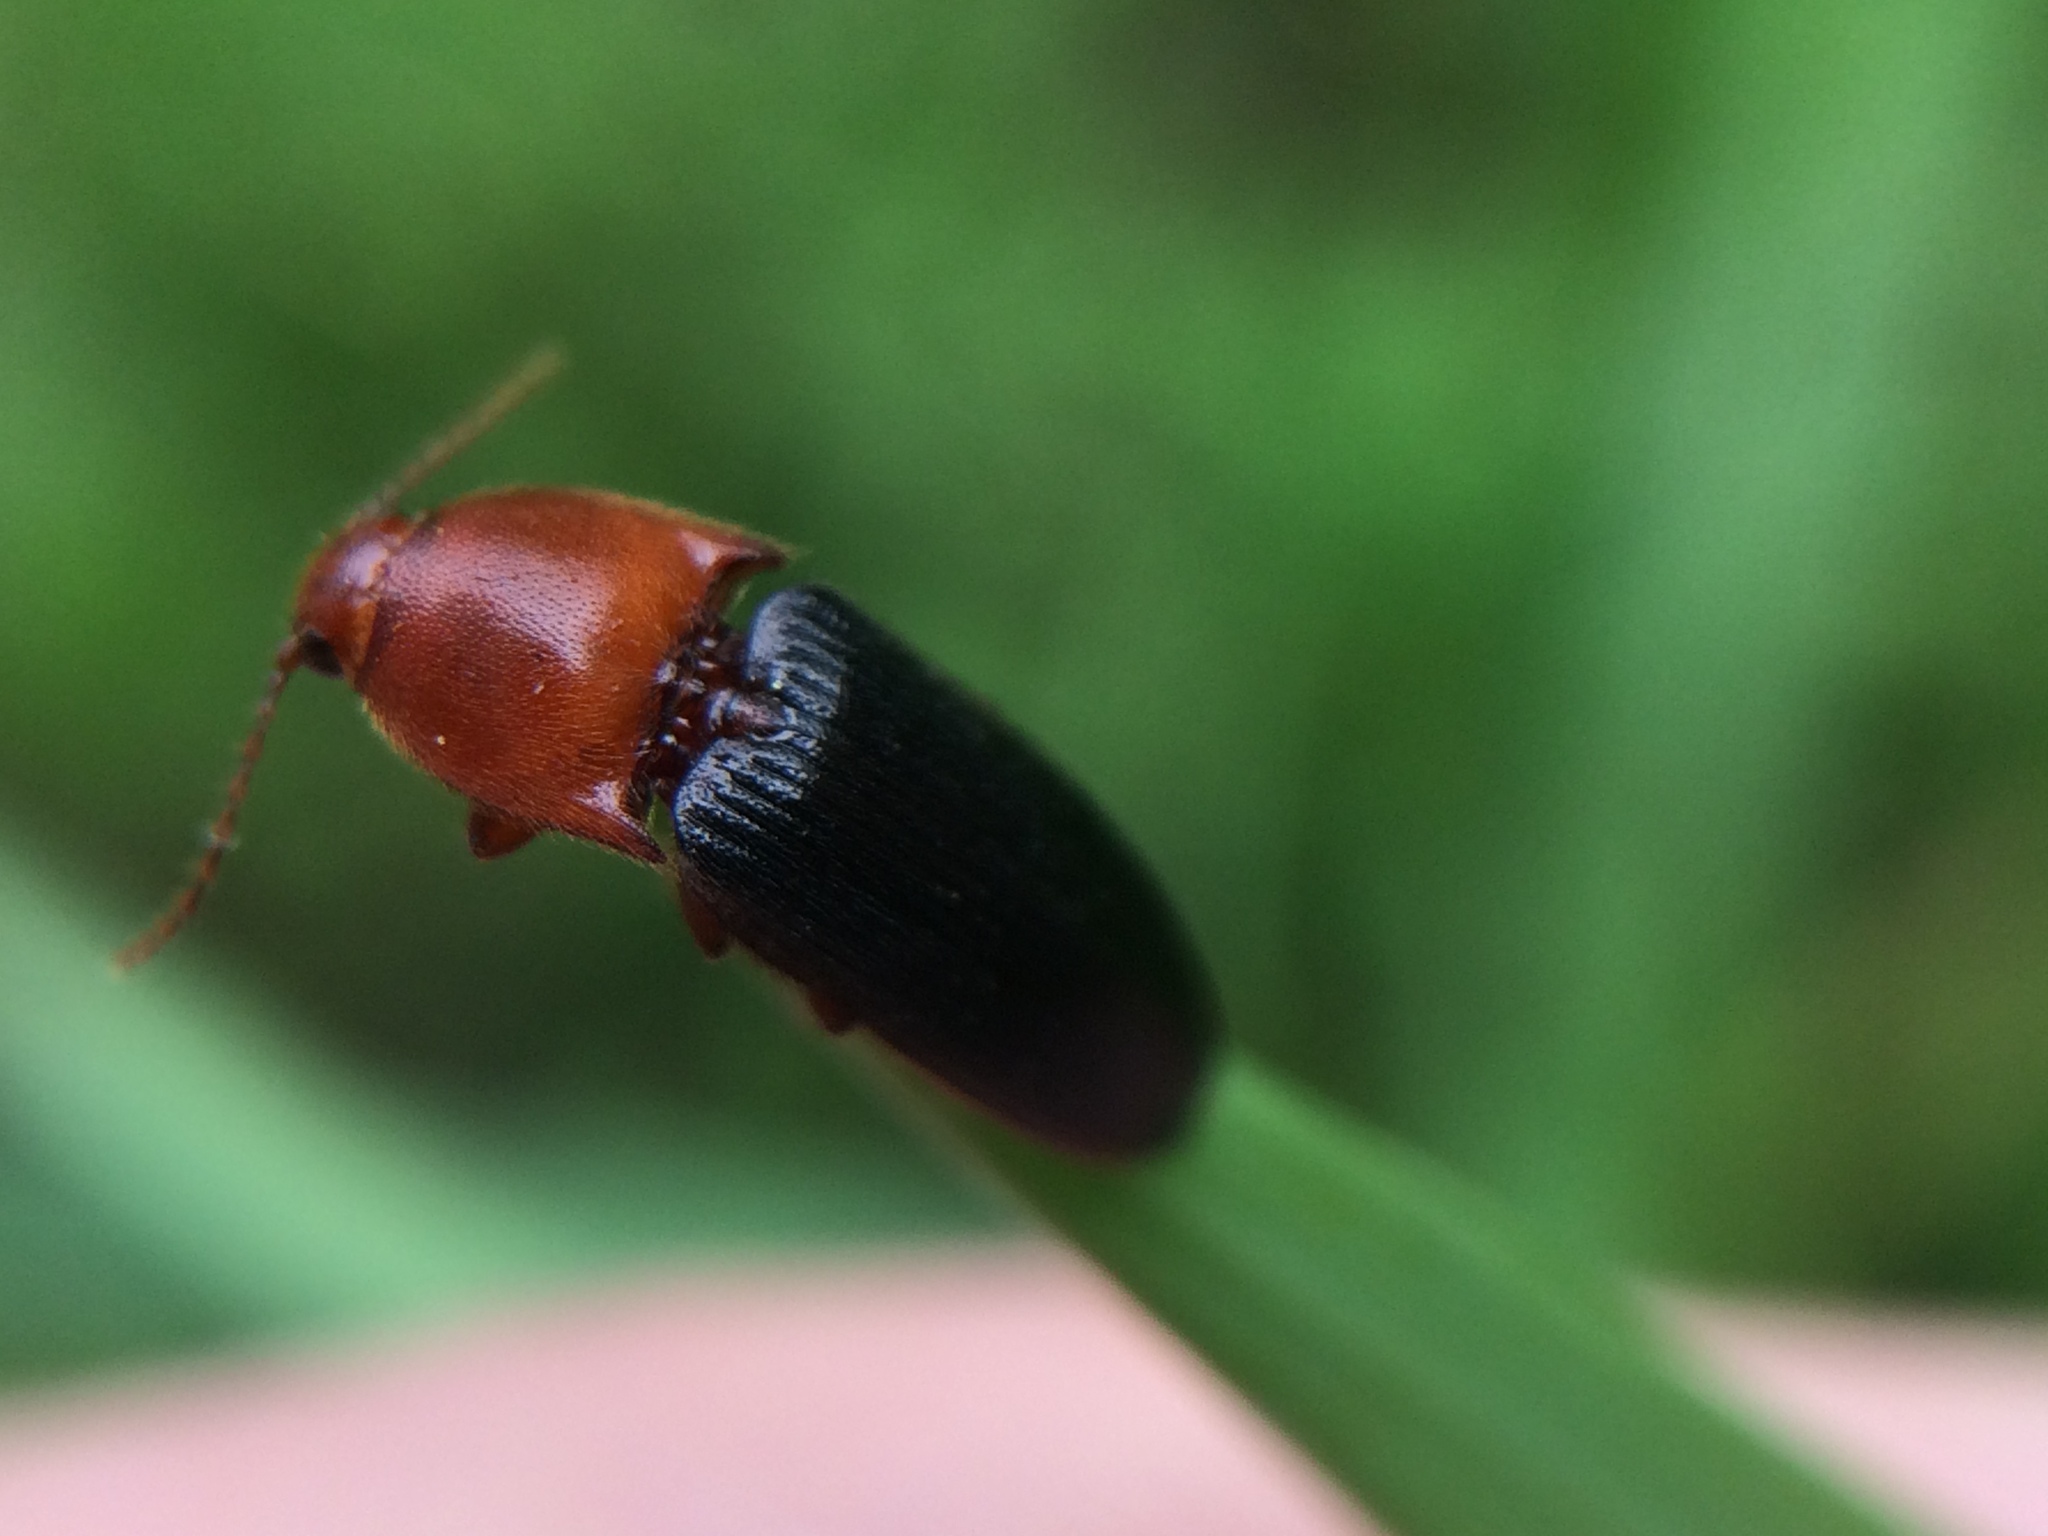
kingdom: Animalia
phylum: Arthropoda
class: Insecta
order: Coleoptera
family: Elateridae
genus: Ampedus
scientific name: Ampedus
